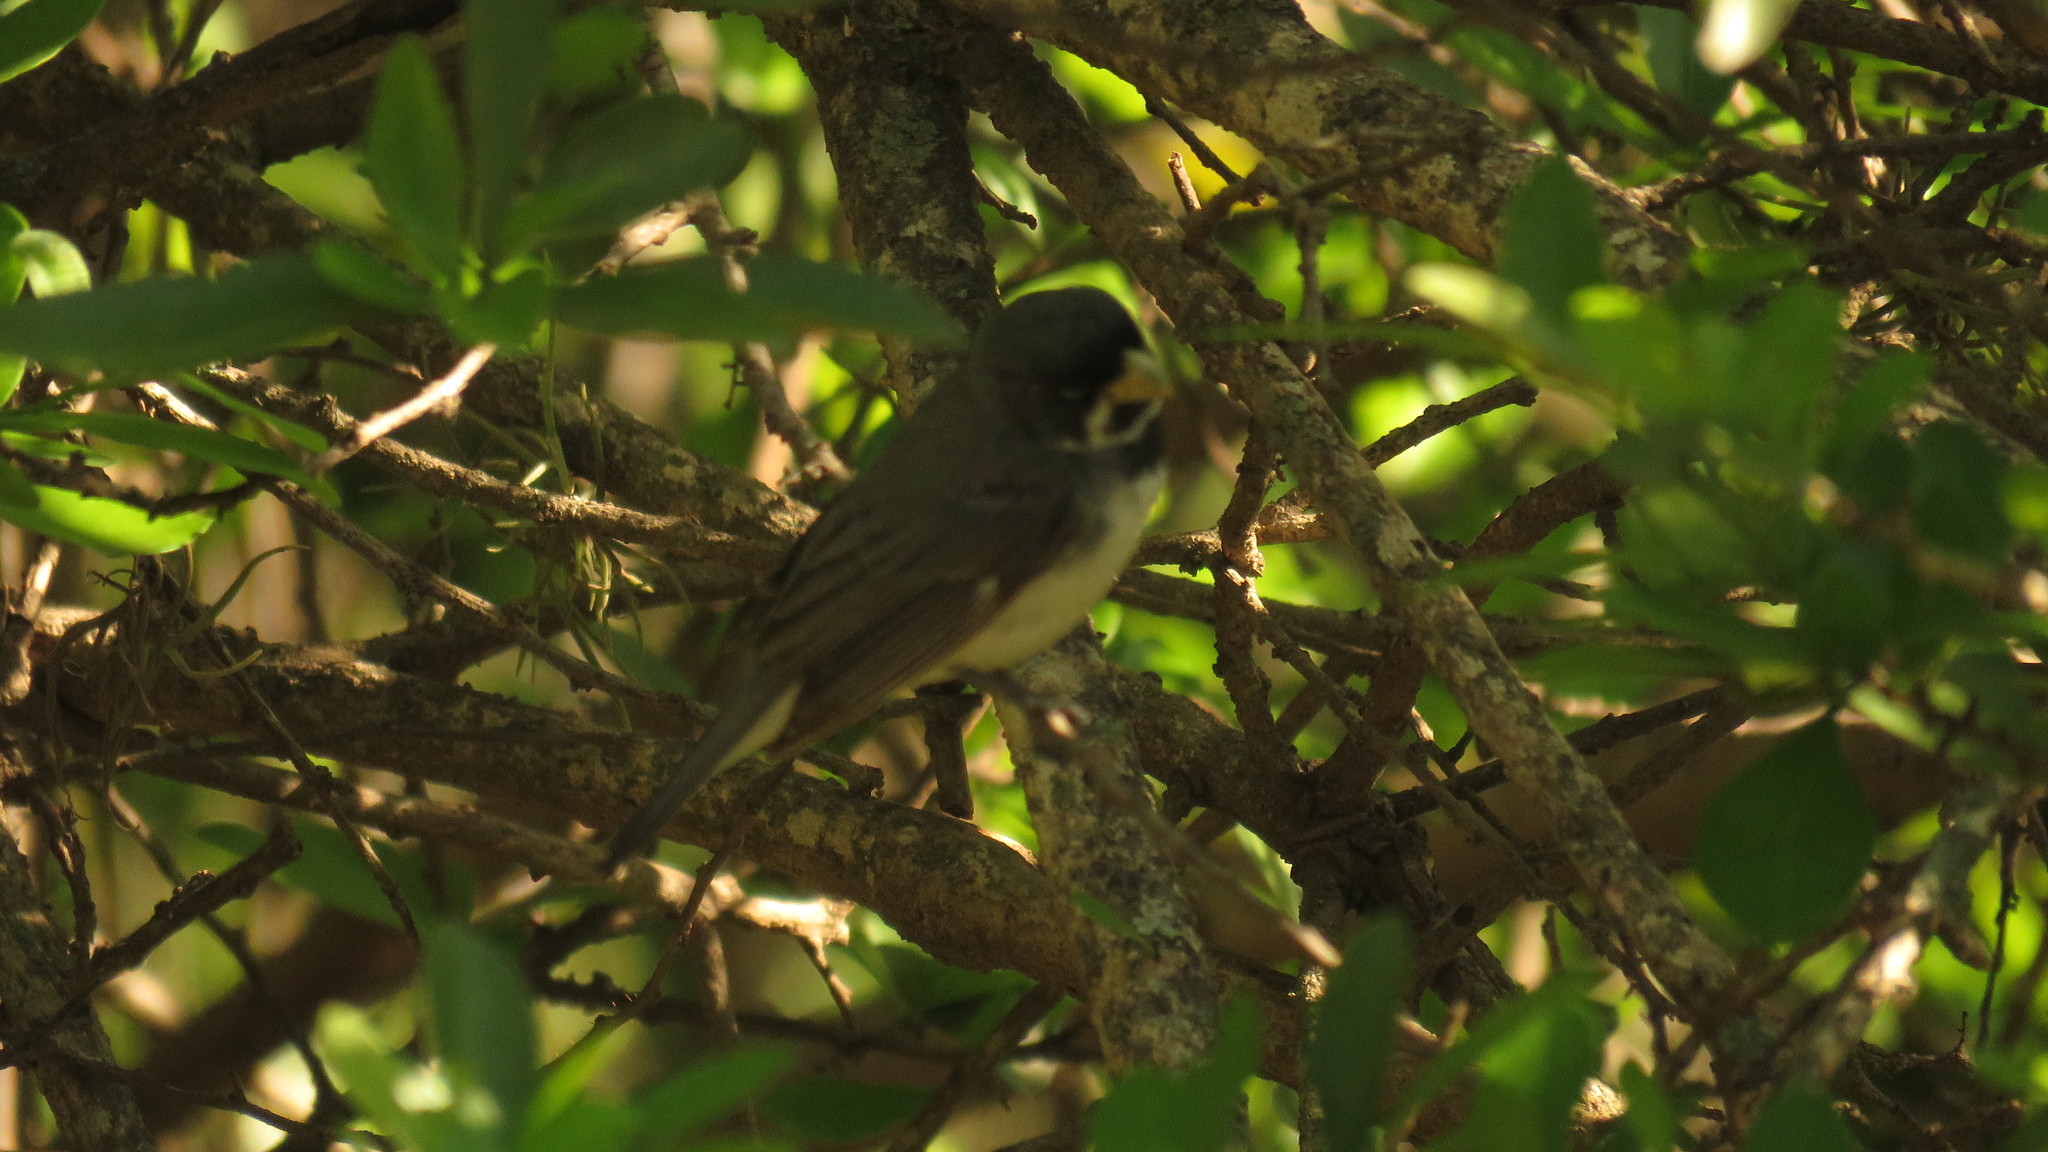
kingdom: Animalia
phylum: Chordata
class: Aves
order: Passeriformes
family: Thraupidae
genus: Sporophila
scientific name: Sporophila caerulescens
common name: Double-collared seedeater
